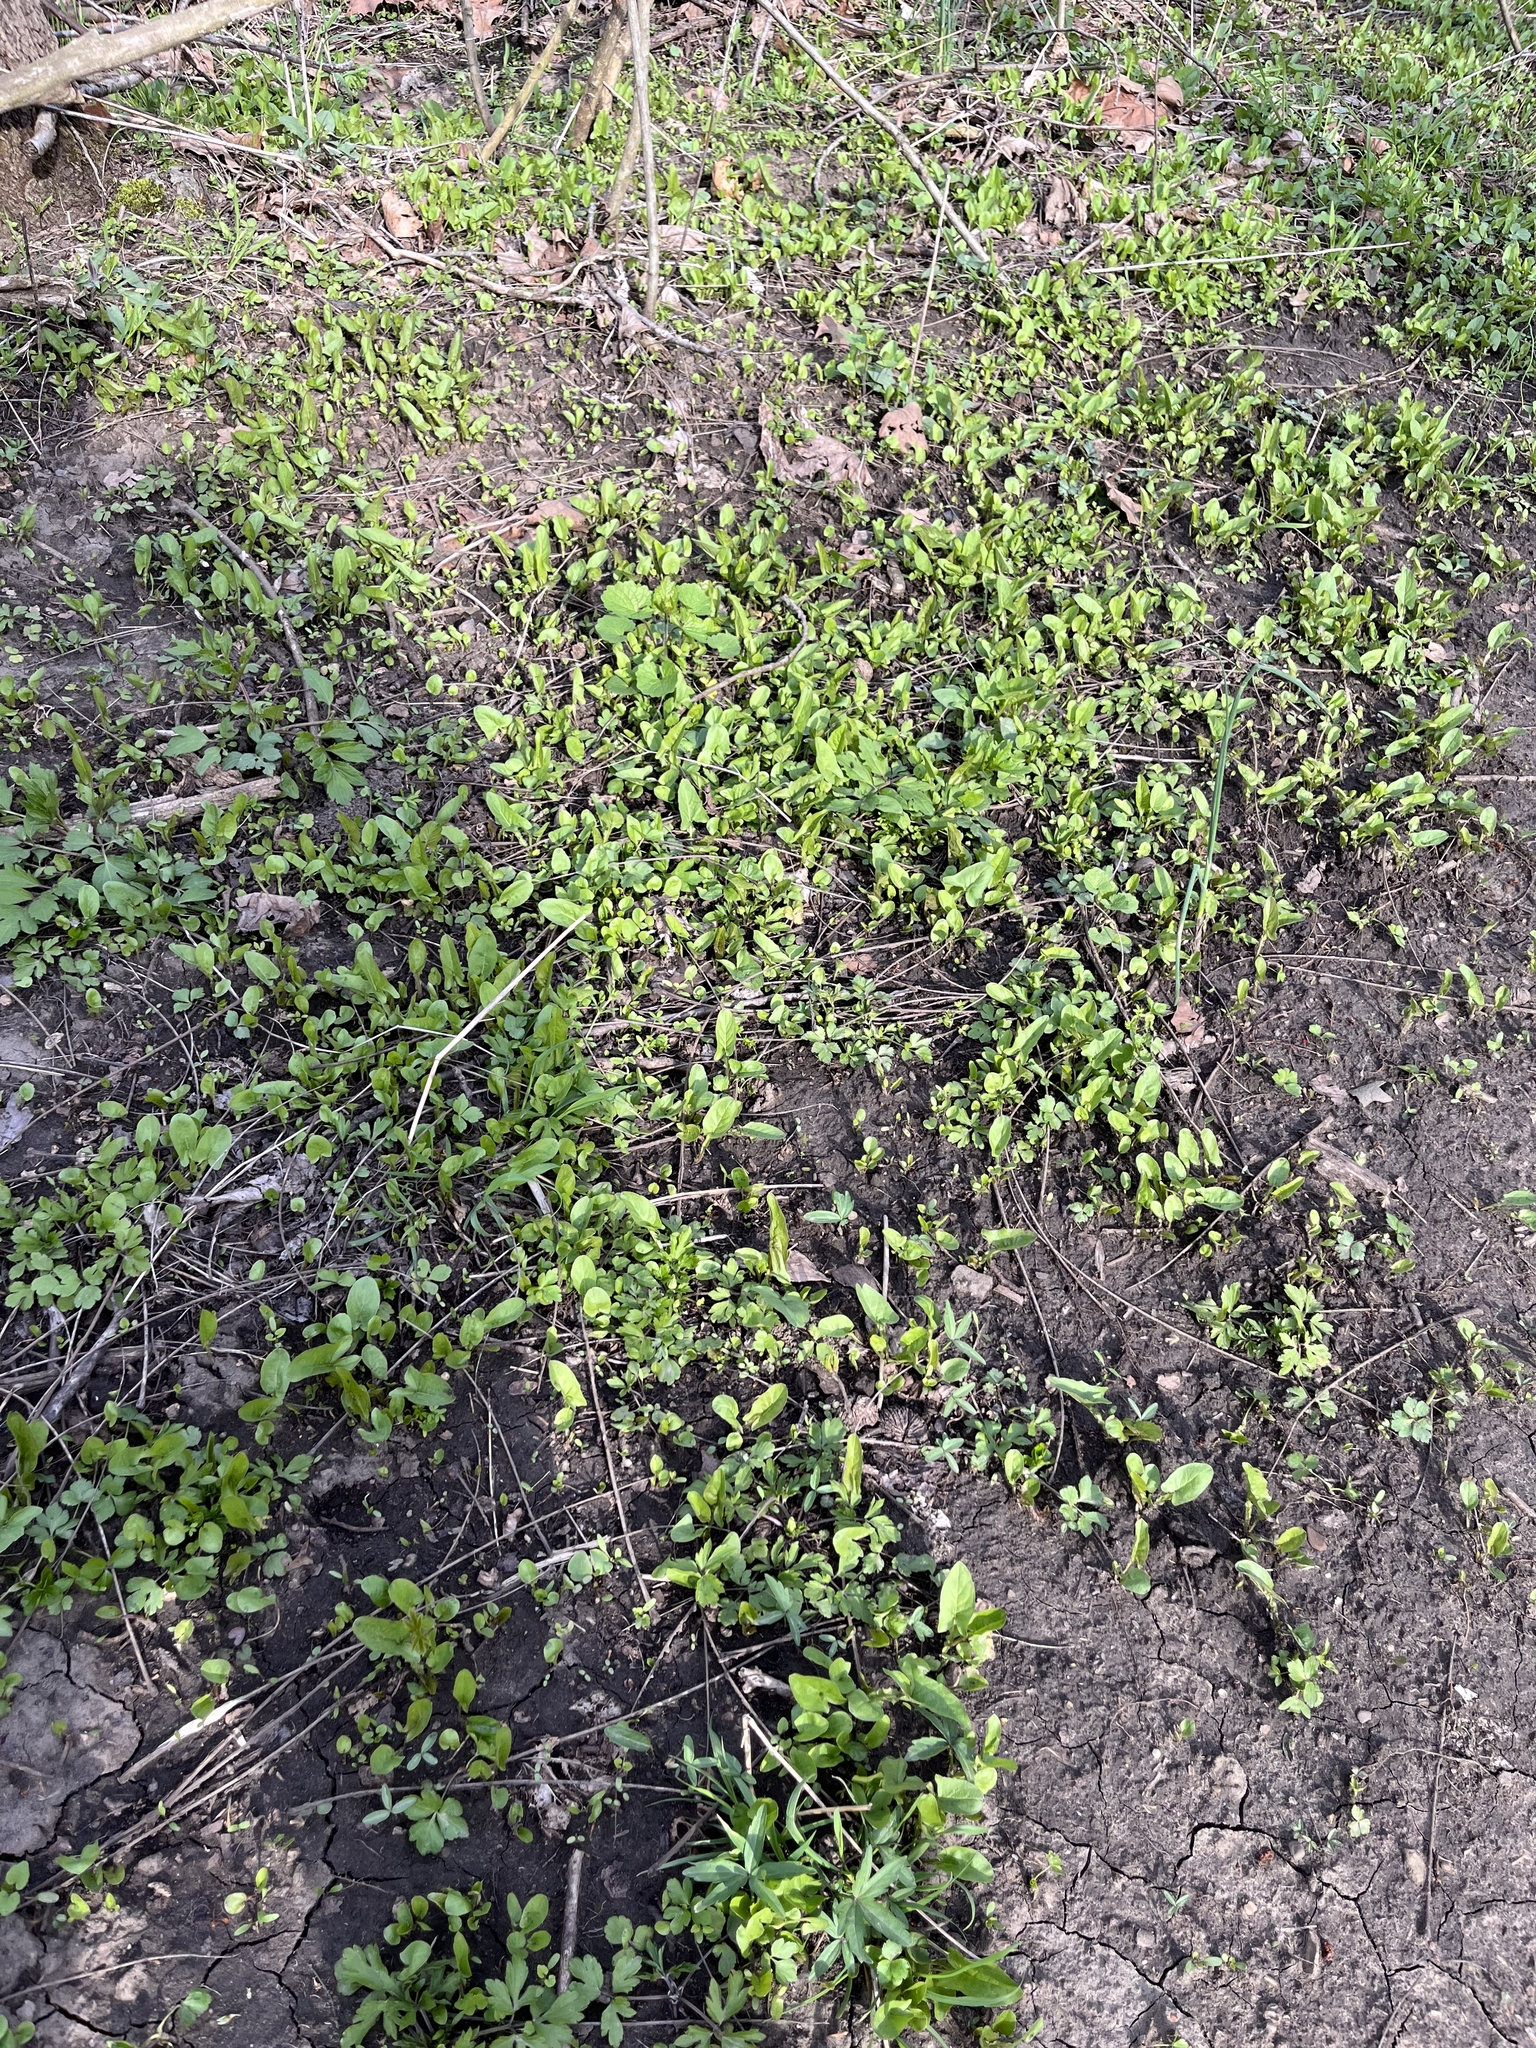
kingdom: Plantae
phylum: Tracheophyta
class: Magnoliopsida
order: Asterales
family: Asteraceae
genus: Nabalus
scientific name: Nabalus crepidineus
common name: Nodding rattlesnakeroot
